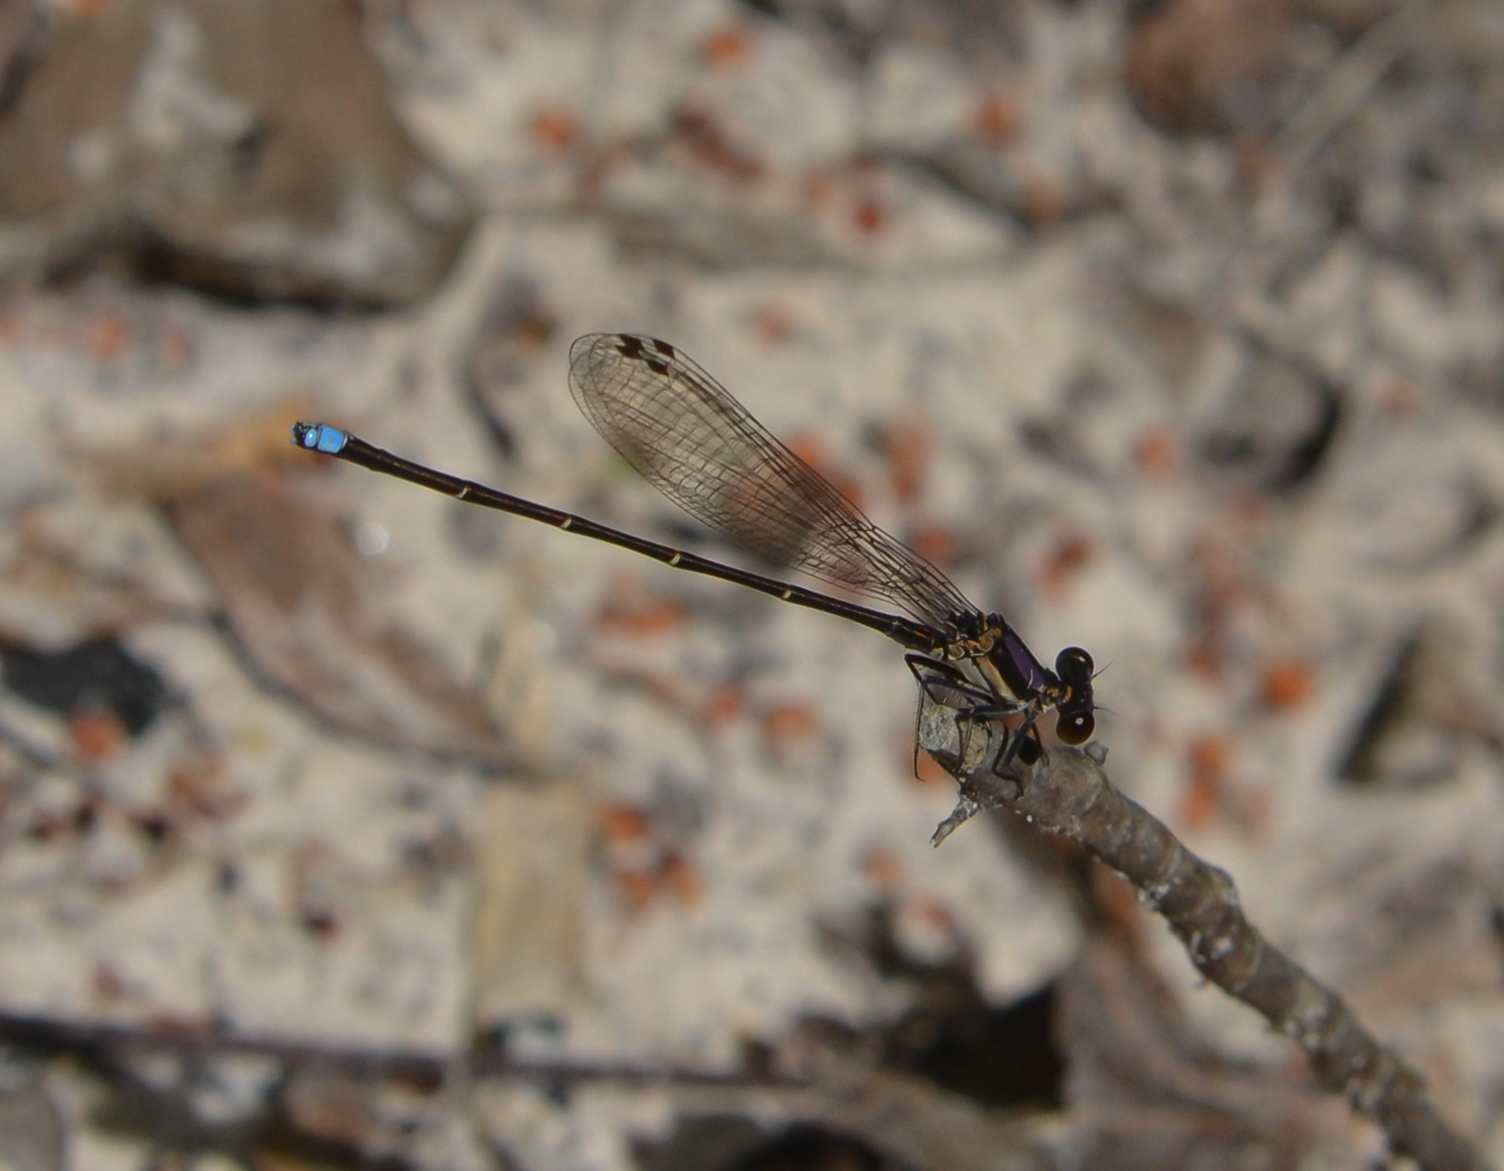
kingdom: Animalia
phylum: Arthropoda
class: Insecta
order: Odonata
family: Coenagrionidae
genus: Argia
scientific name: Argia tibialis
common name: Blue-tipped dancer
